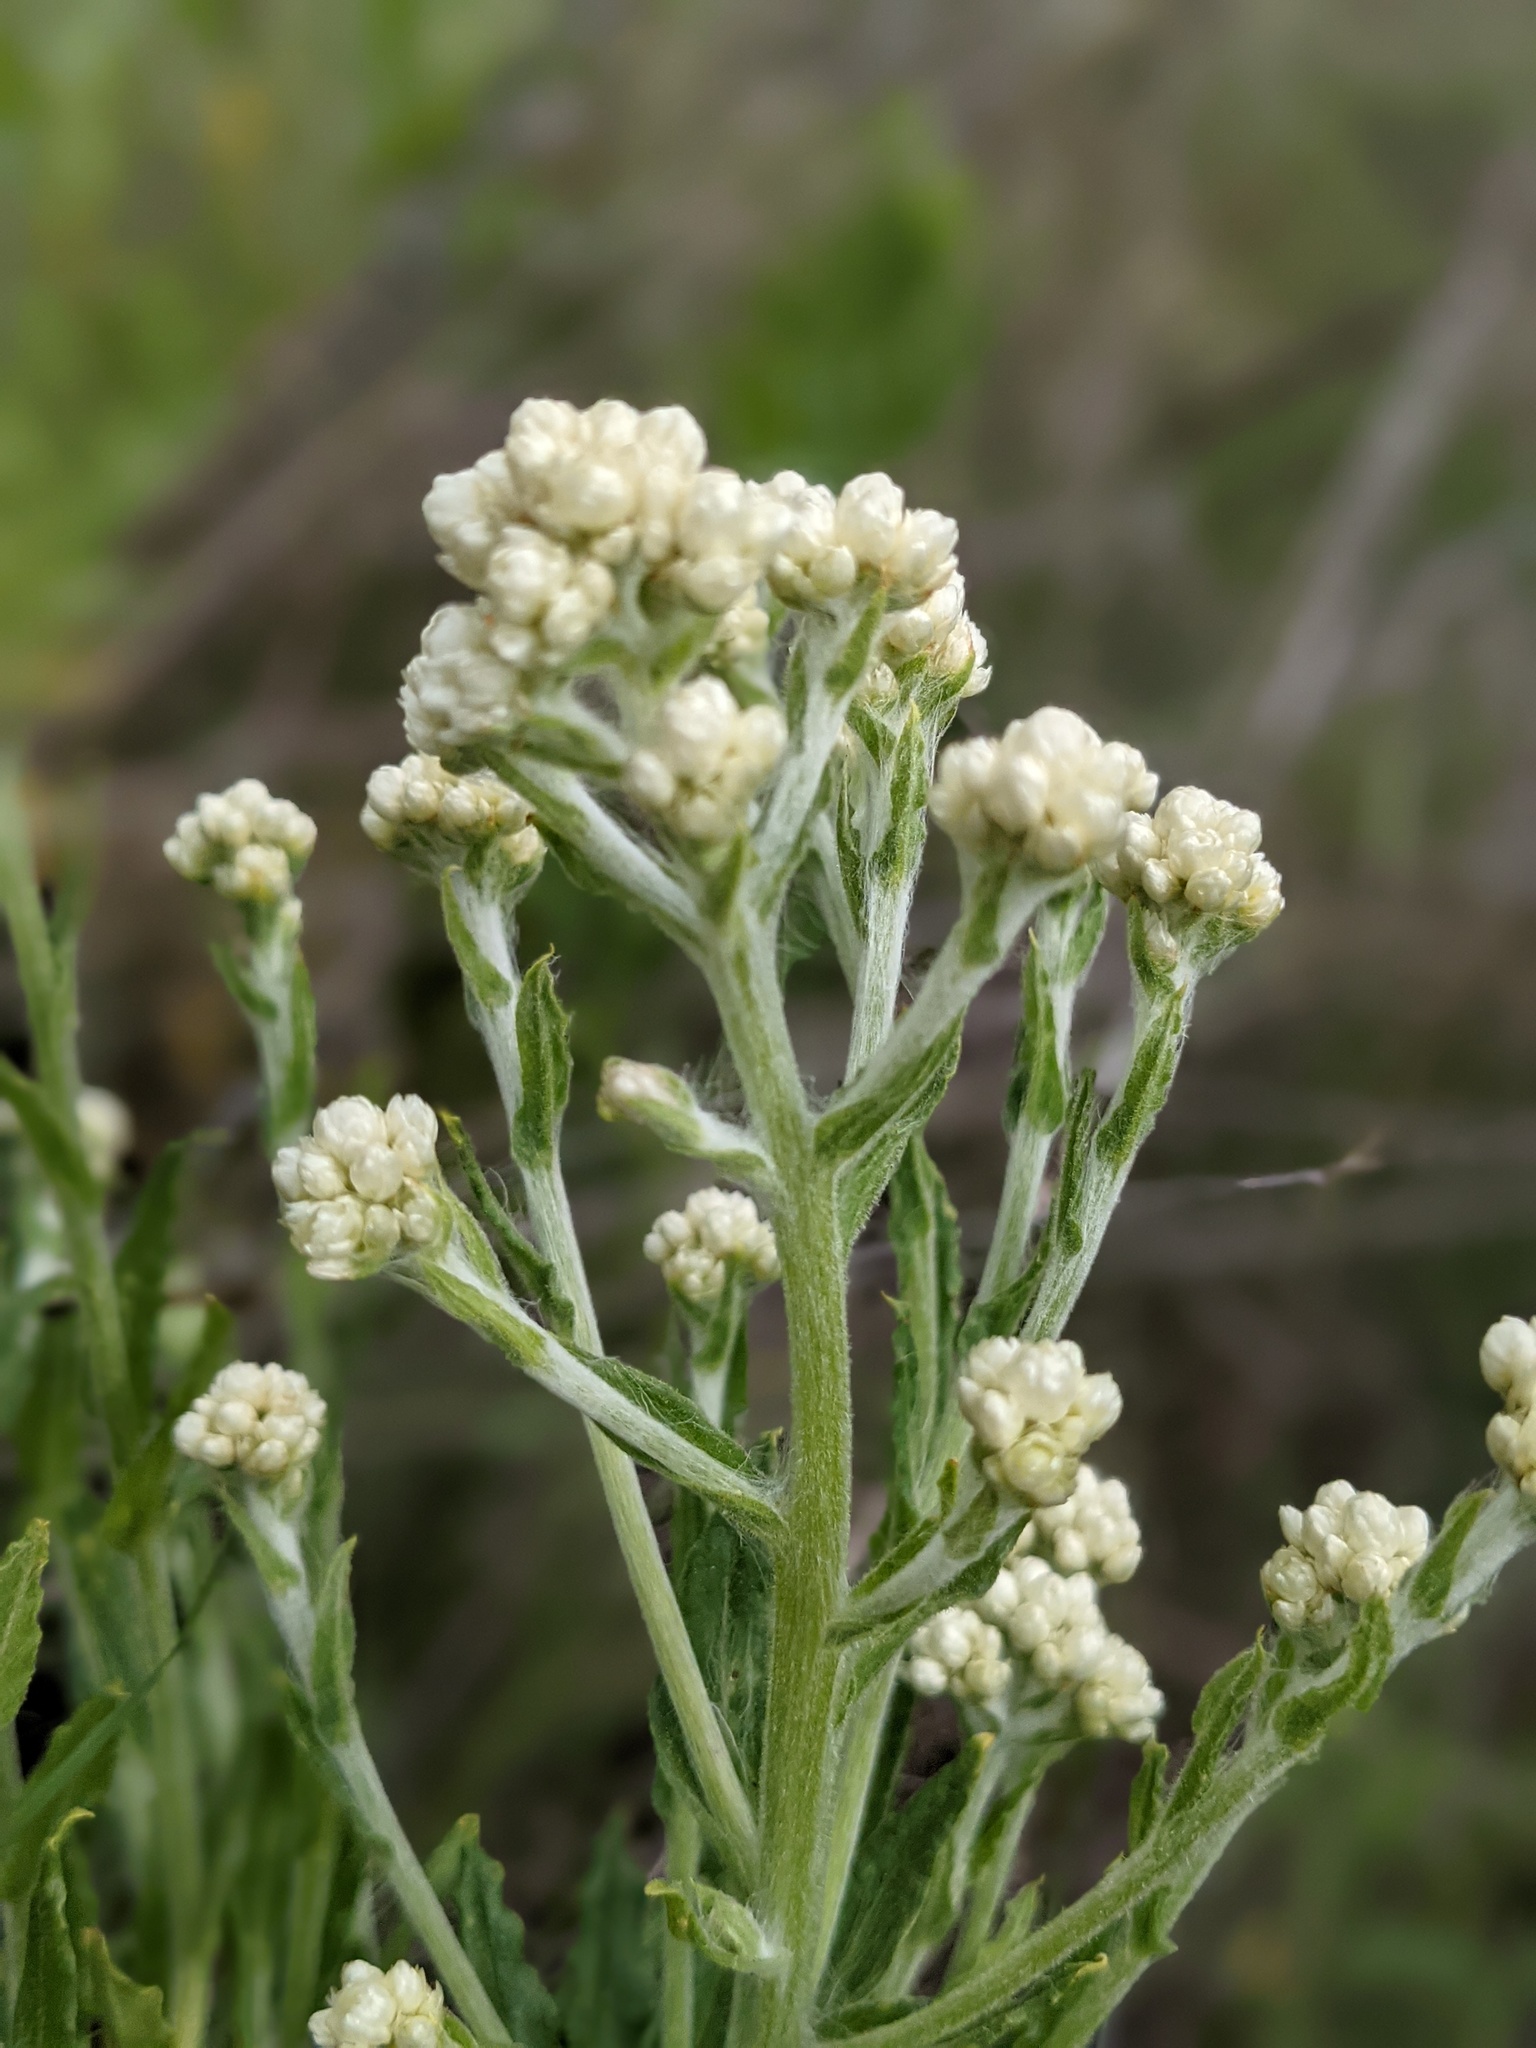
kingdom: Plantae
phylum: Tracheophyta
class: Magnoliopsida
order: Asterales
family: Asteraceae
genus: Pseudognaphalium
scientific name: Pseudognaphalium californicum
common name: California rabbit-tobacco
